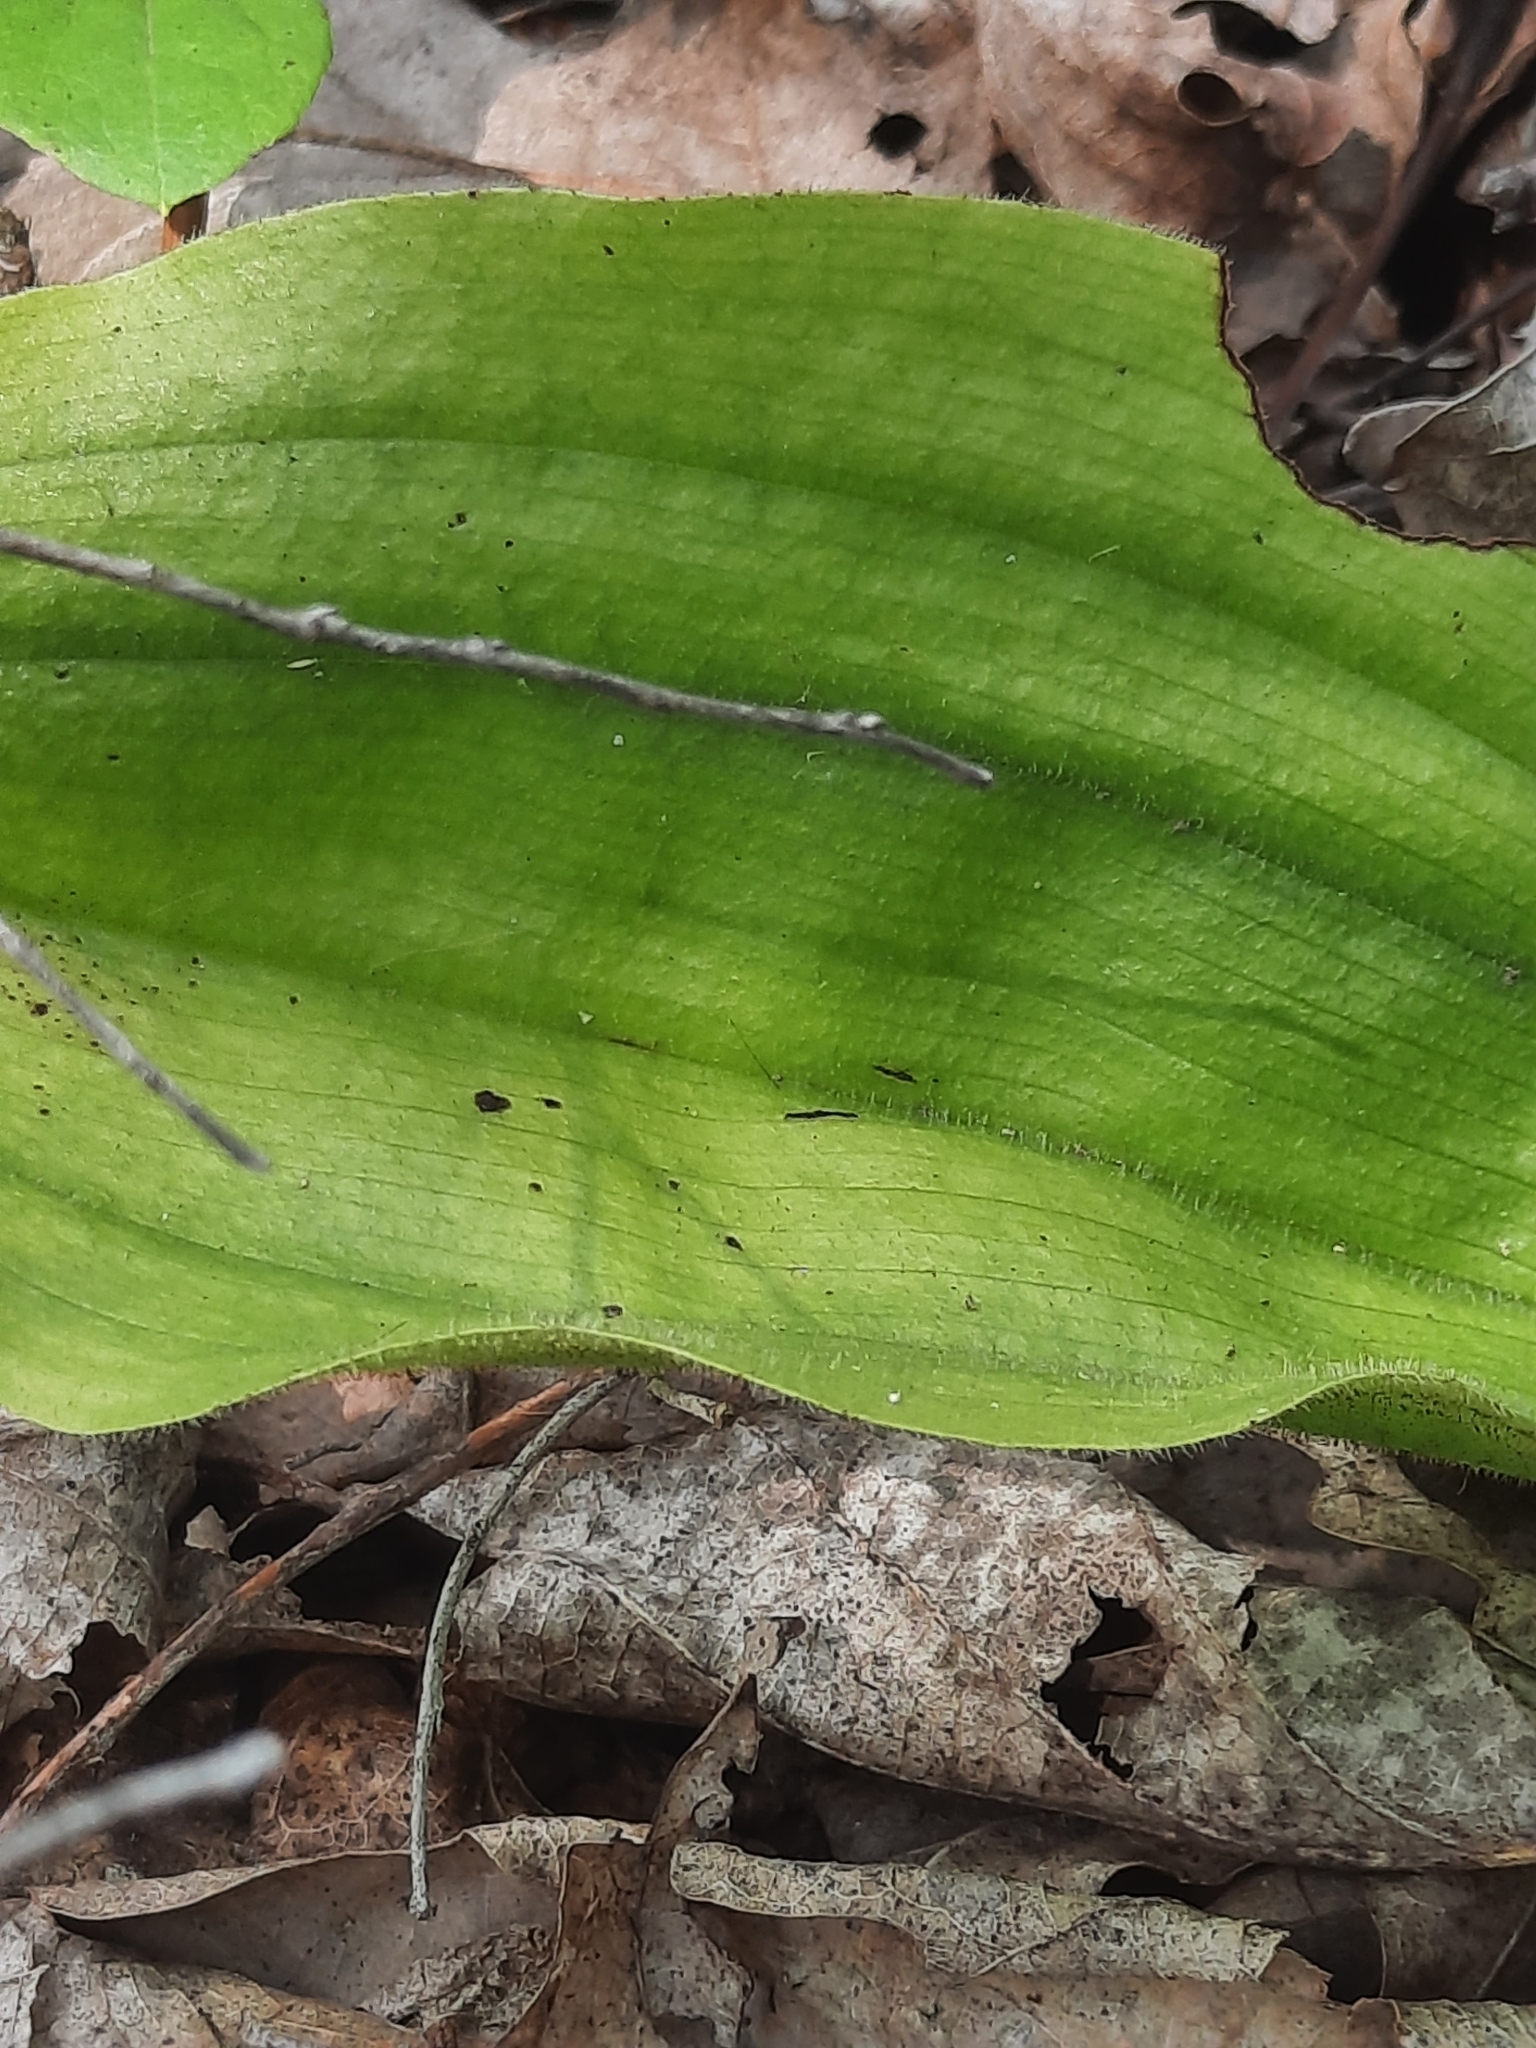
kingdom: Plantae
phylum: Tracheophyta
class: Liliopsida
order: Asparagales
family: Orchidaceae
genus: Cypripedium
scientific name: Cypripedium acaule
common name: Pink lady's-slipper
